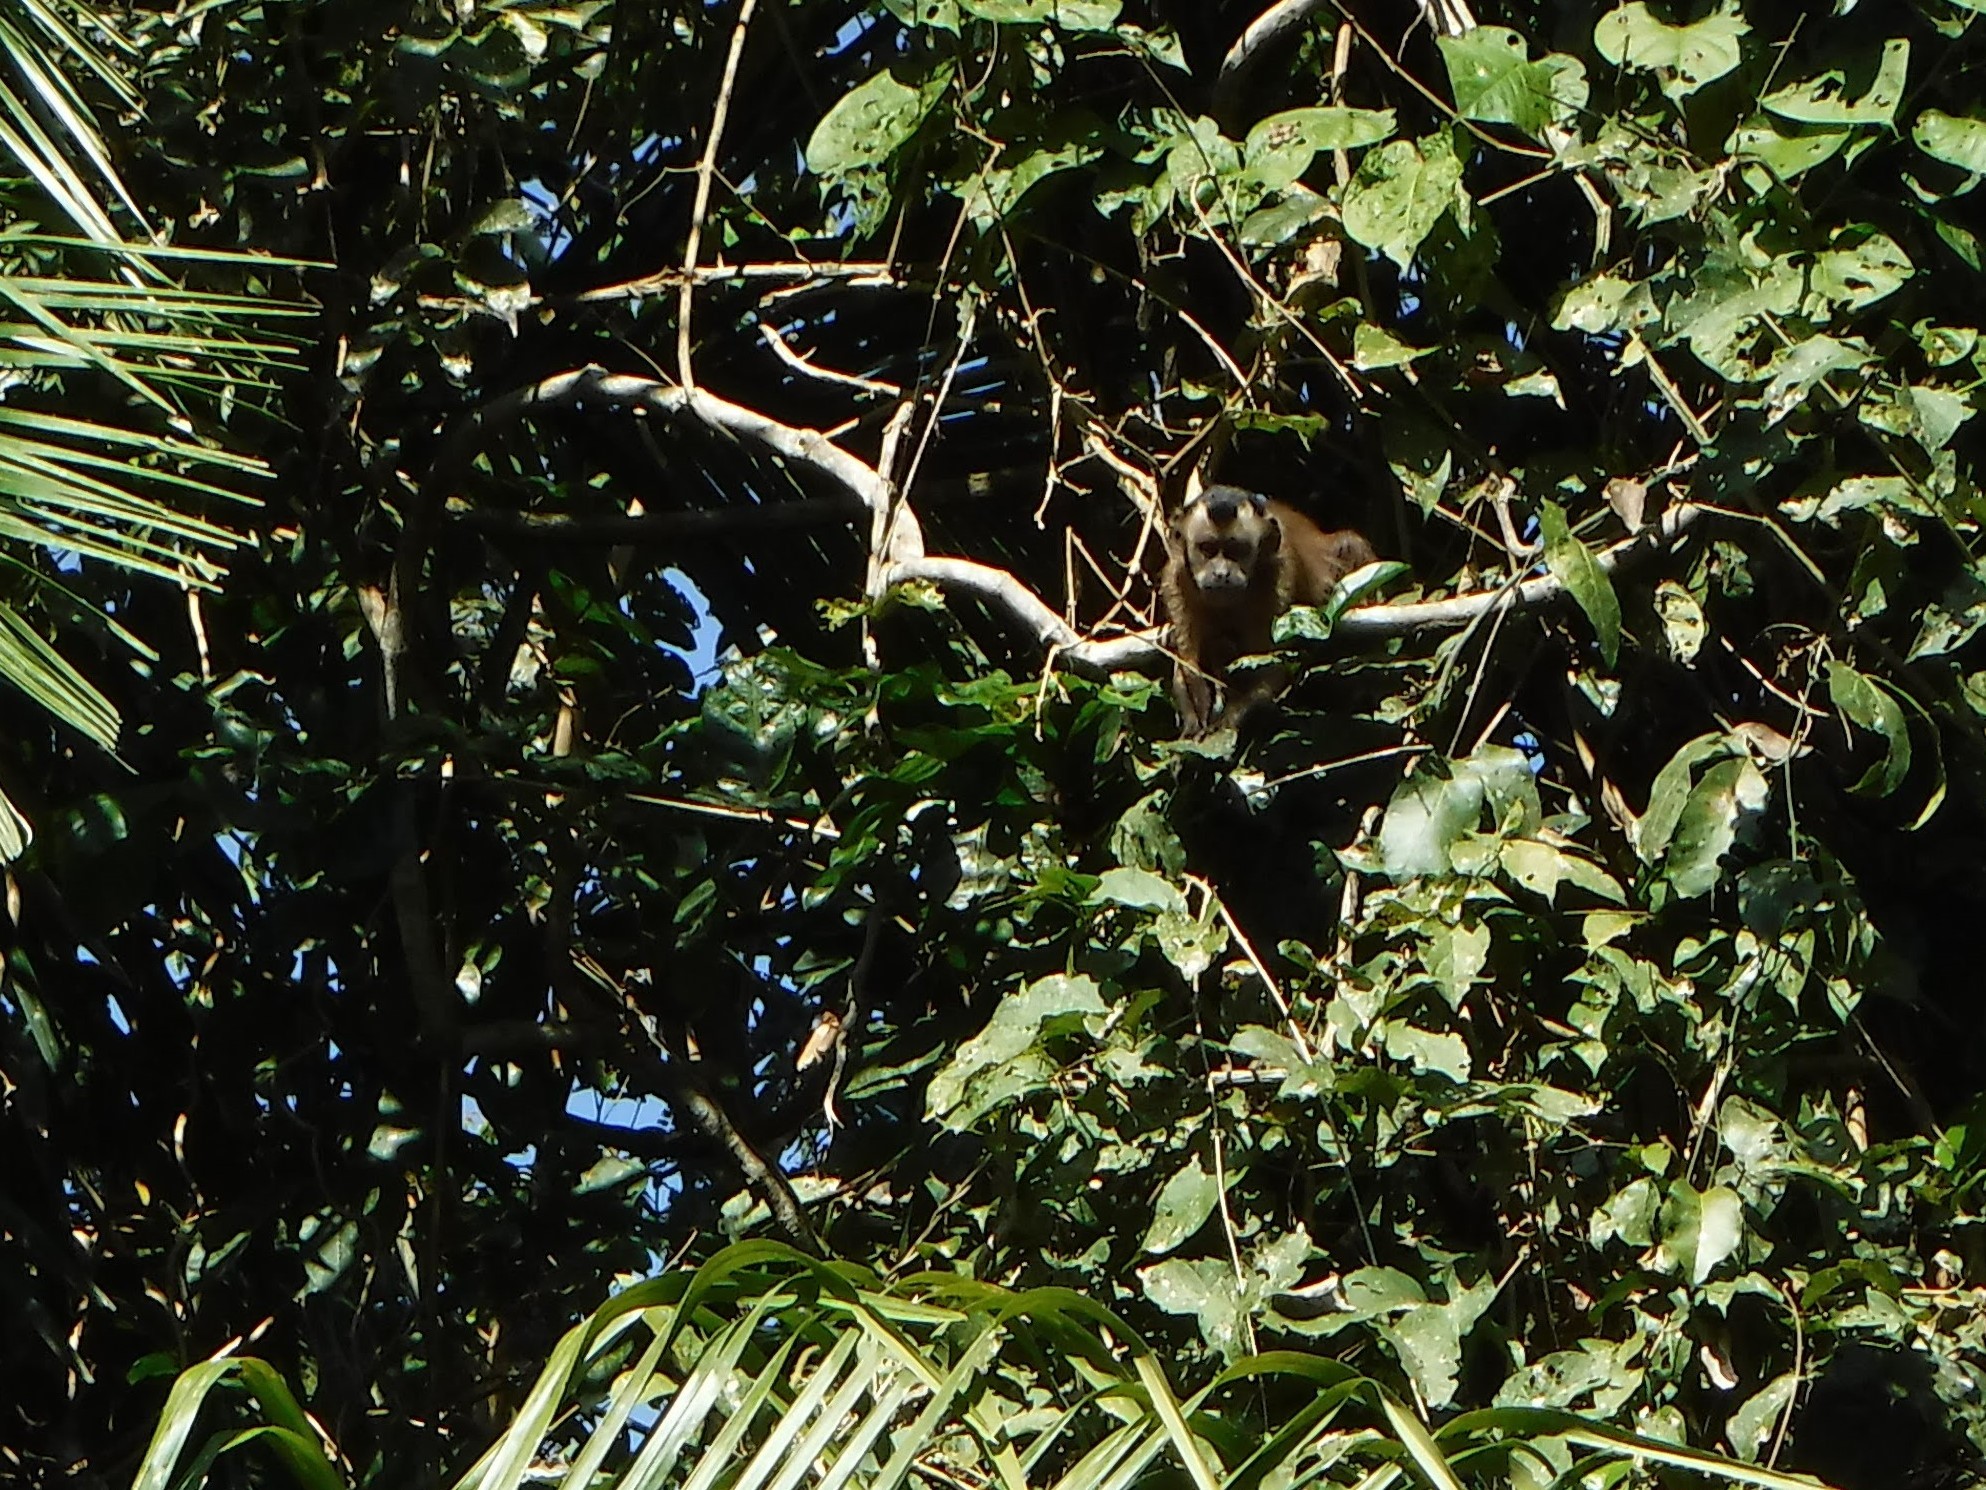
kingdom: Animalia
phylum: Chordata
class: Mammalia
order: Primates
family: Cebidae
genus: Sapajus
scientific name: Sapajus apella
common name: Tufted capuchin
